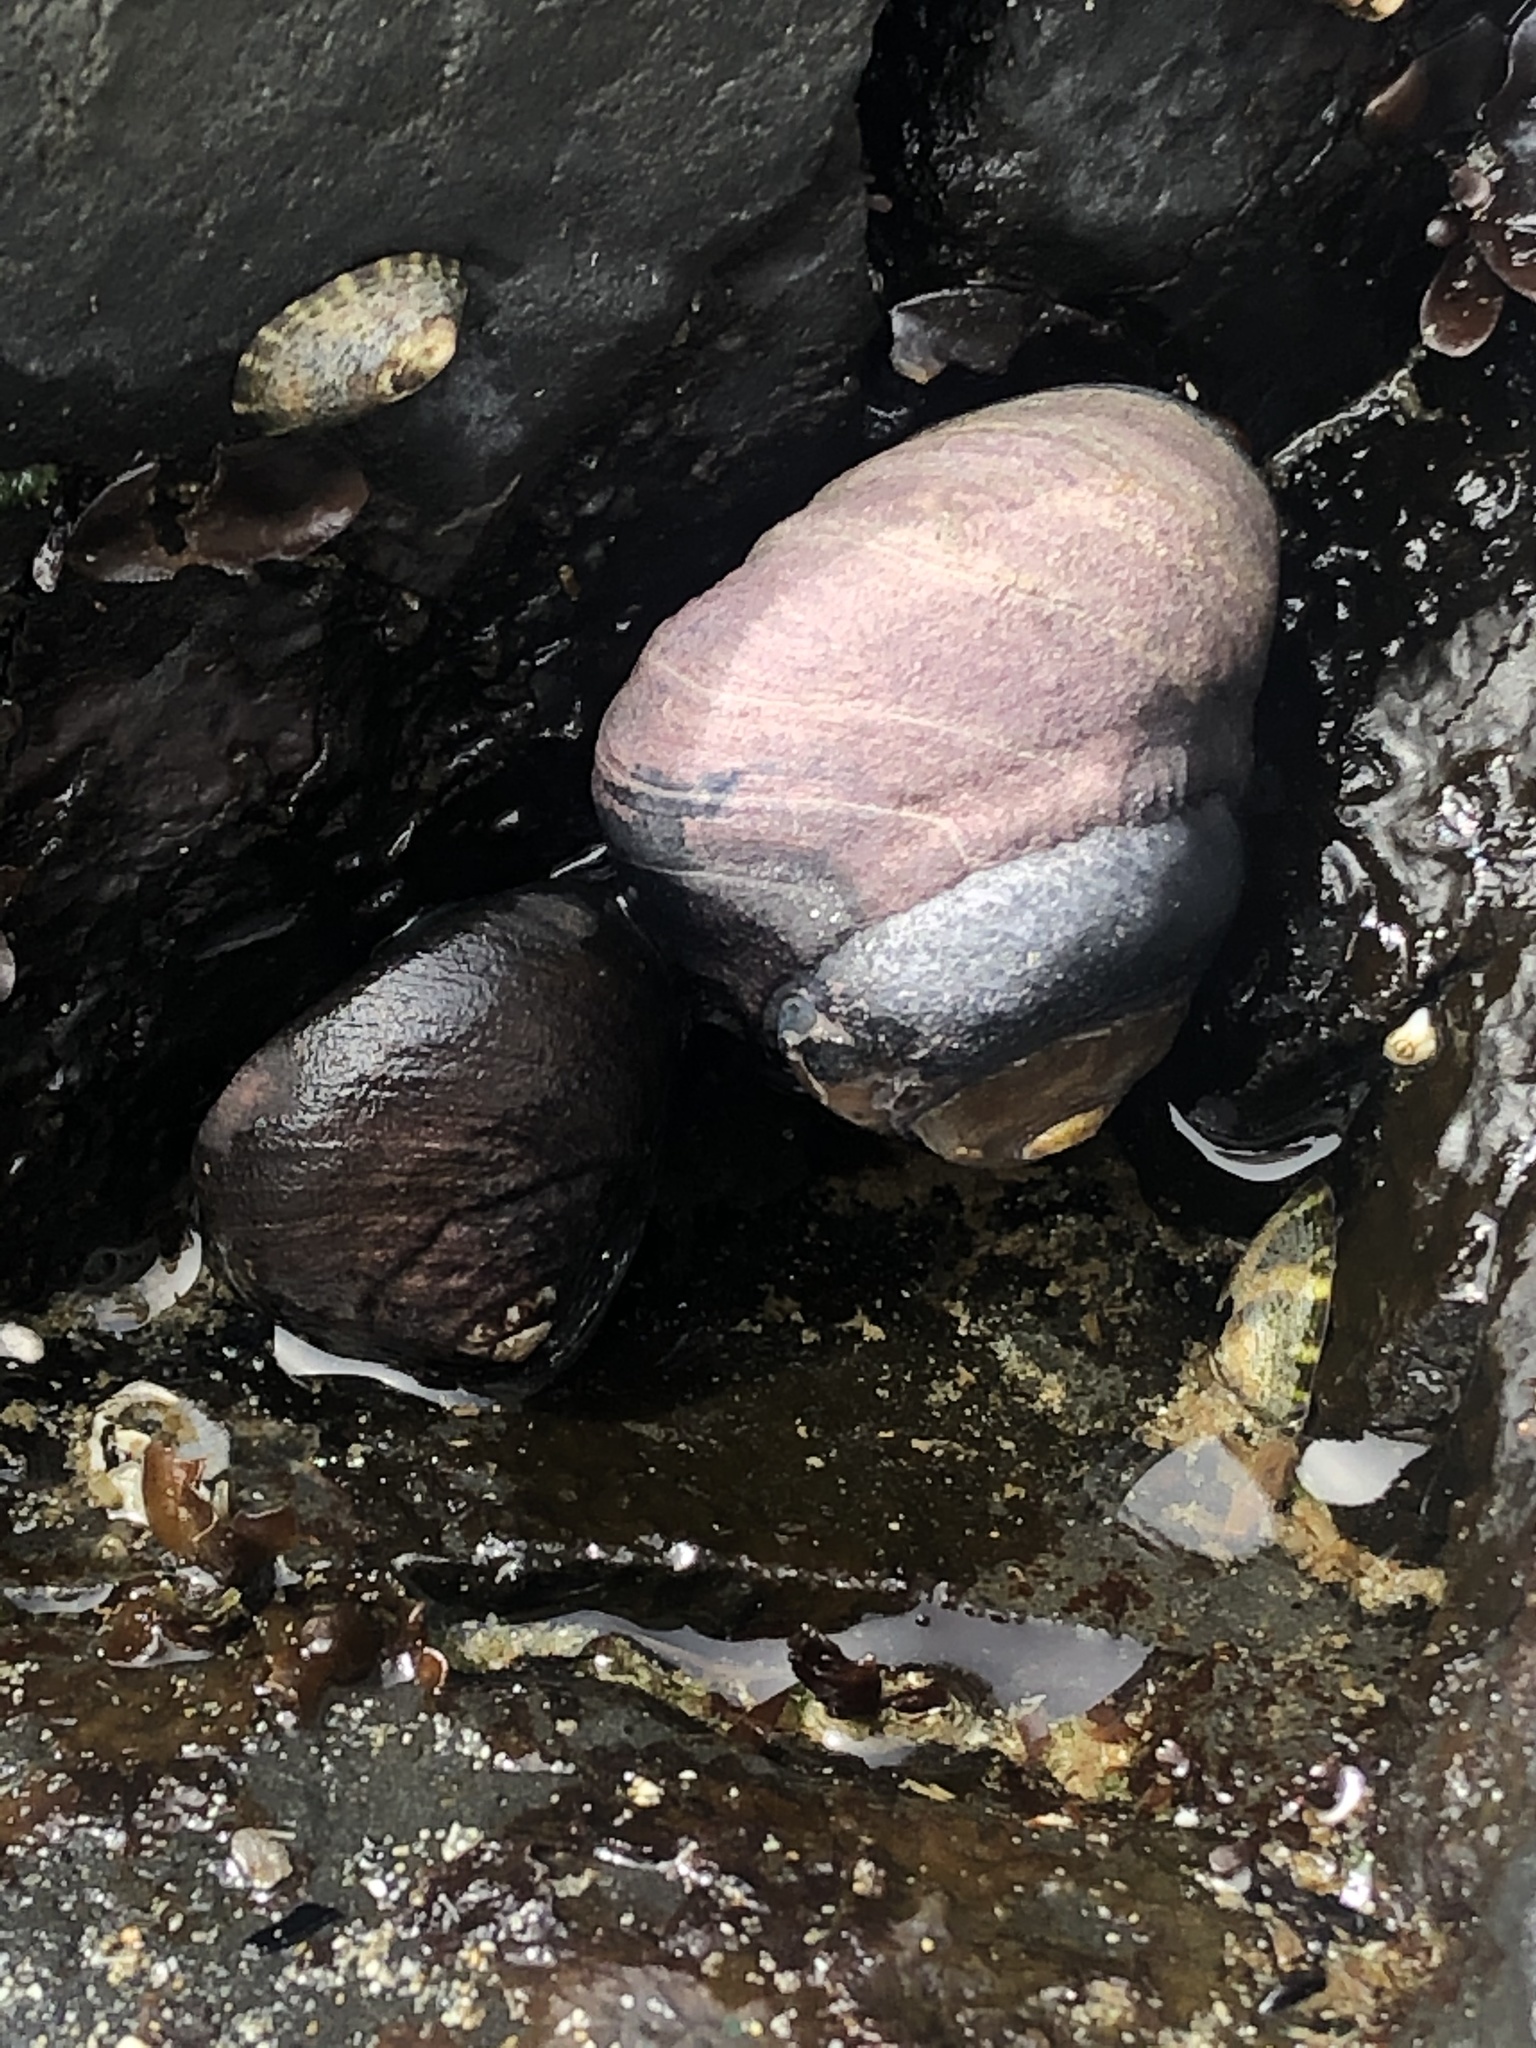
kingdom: Animalia
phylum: Mollusca
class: Gastropoda
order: Trochida
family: Tegulidae
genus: Tegula
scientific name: Tegula funebralis
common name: Black tegula
